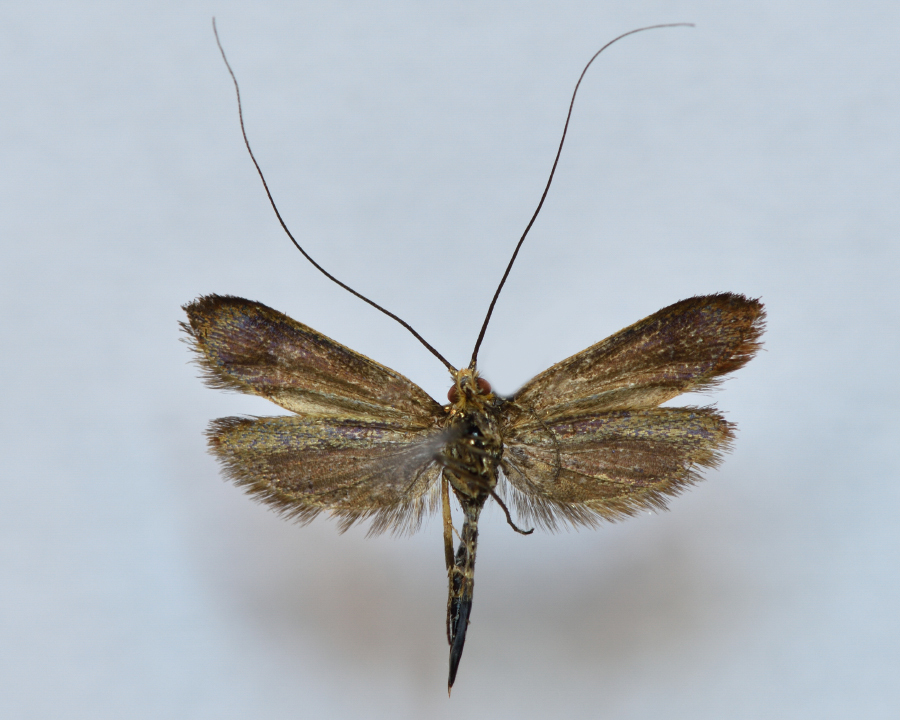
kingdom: Animalia
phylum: Arthropoda
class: Insecta
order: Lepidoptera
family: Adelidae
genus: Nemophora
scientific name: Nemophora metallica
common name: Brassy long-horn
